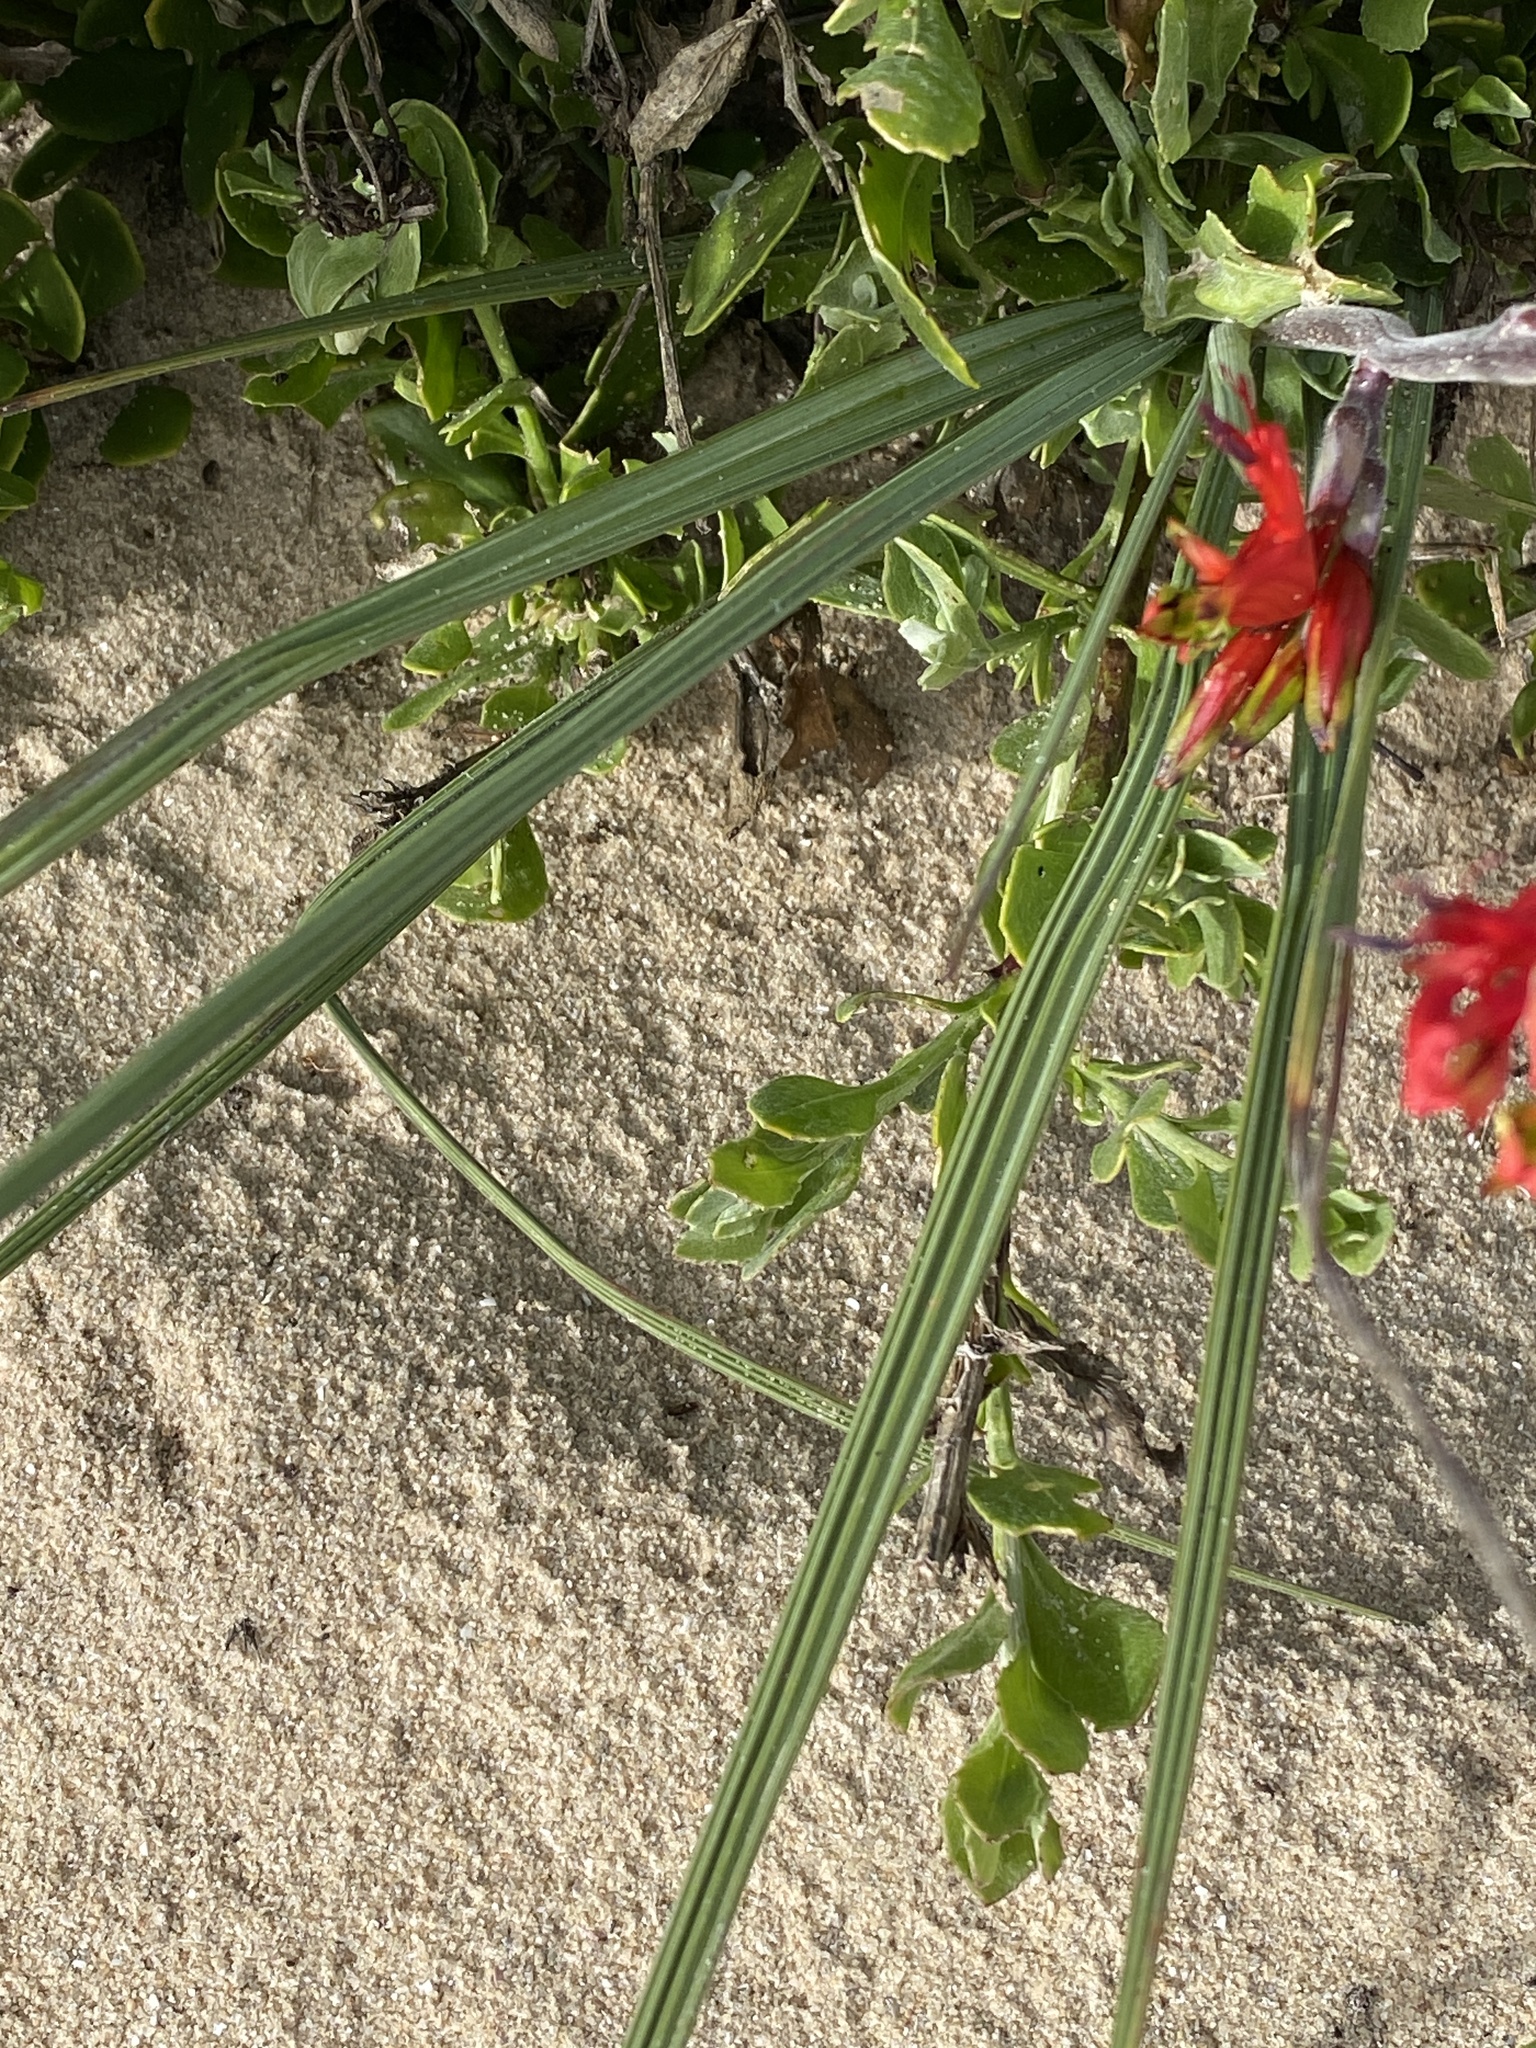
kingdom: Plantae
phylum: Tracheophyta
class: Liliopsida
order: Asparagales
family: Iridaceae
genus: Babiana
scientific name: Babiana hirsuta
